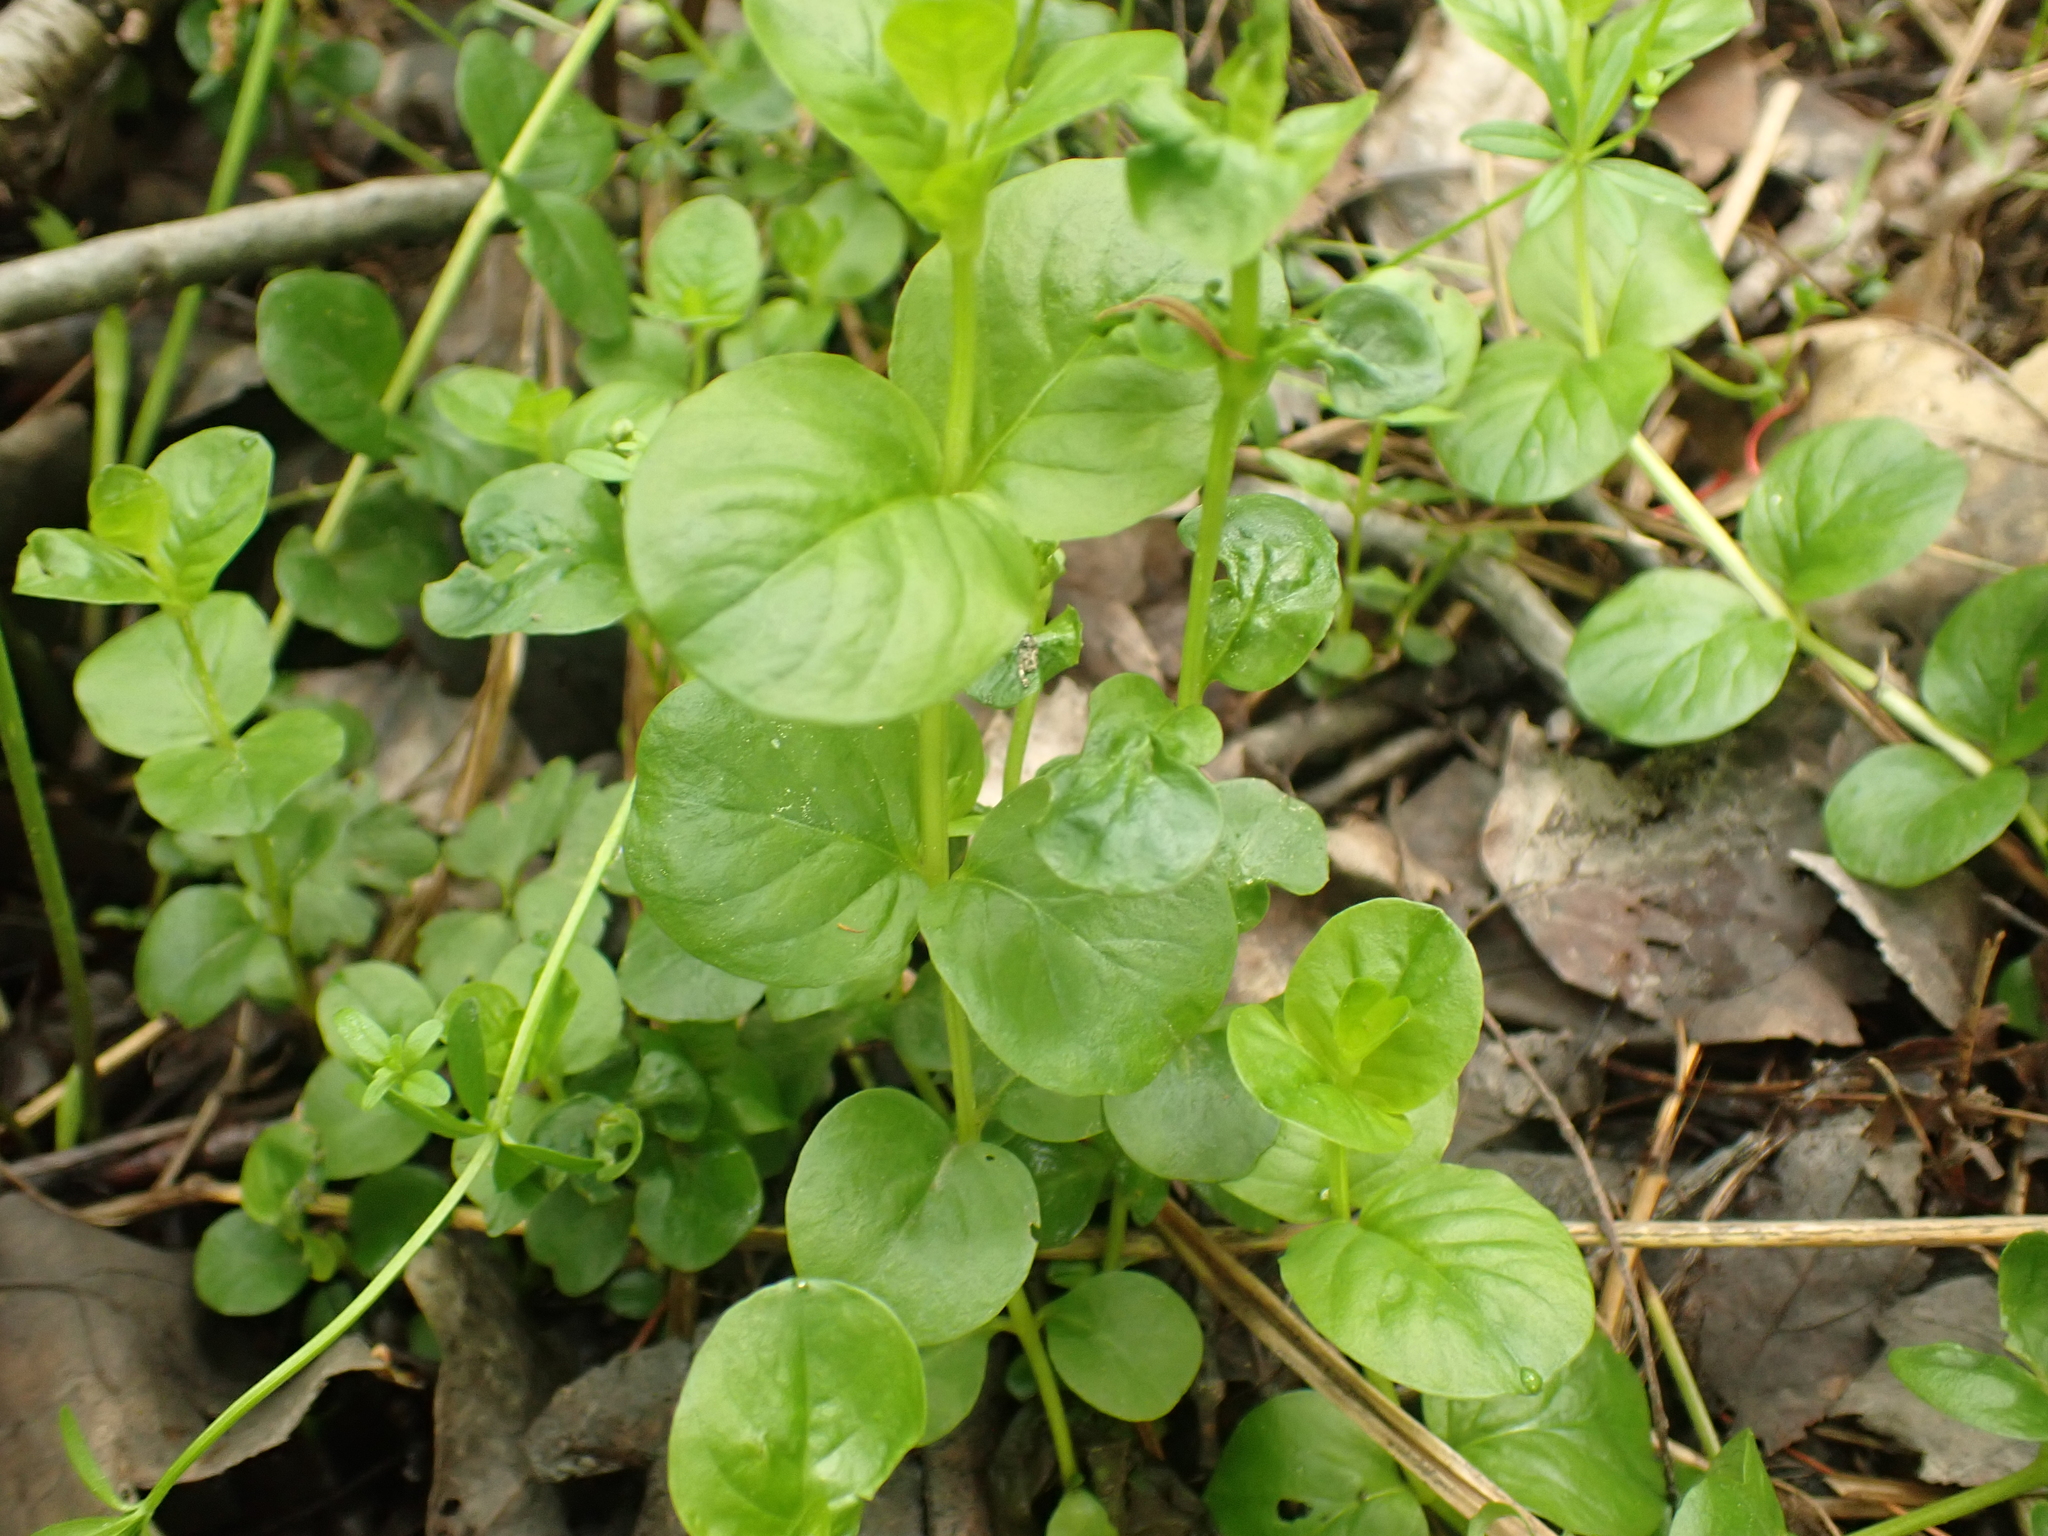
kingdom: Plantae
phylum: Tracheophyta
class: Magnoliopsida
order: Ericales
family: Primulaceae
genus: Lysimachia
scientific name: Lysimachia nummularia
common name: Moneywort
